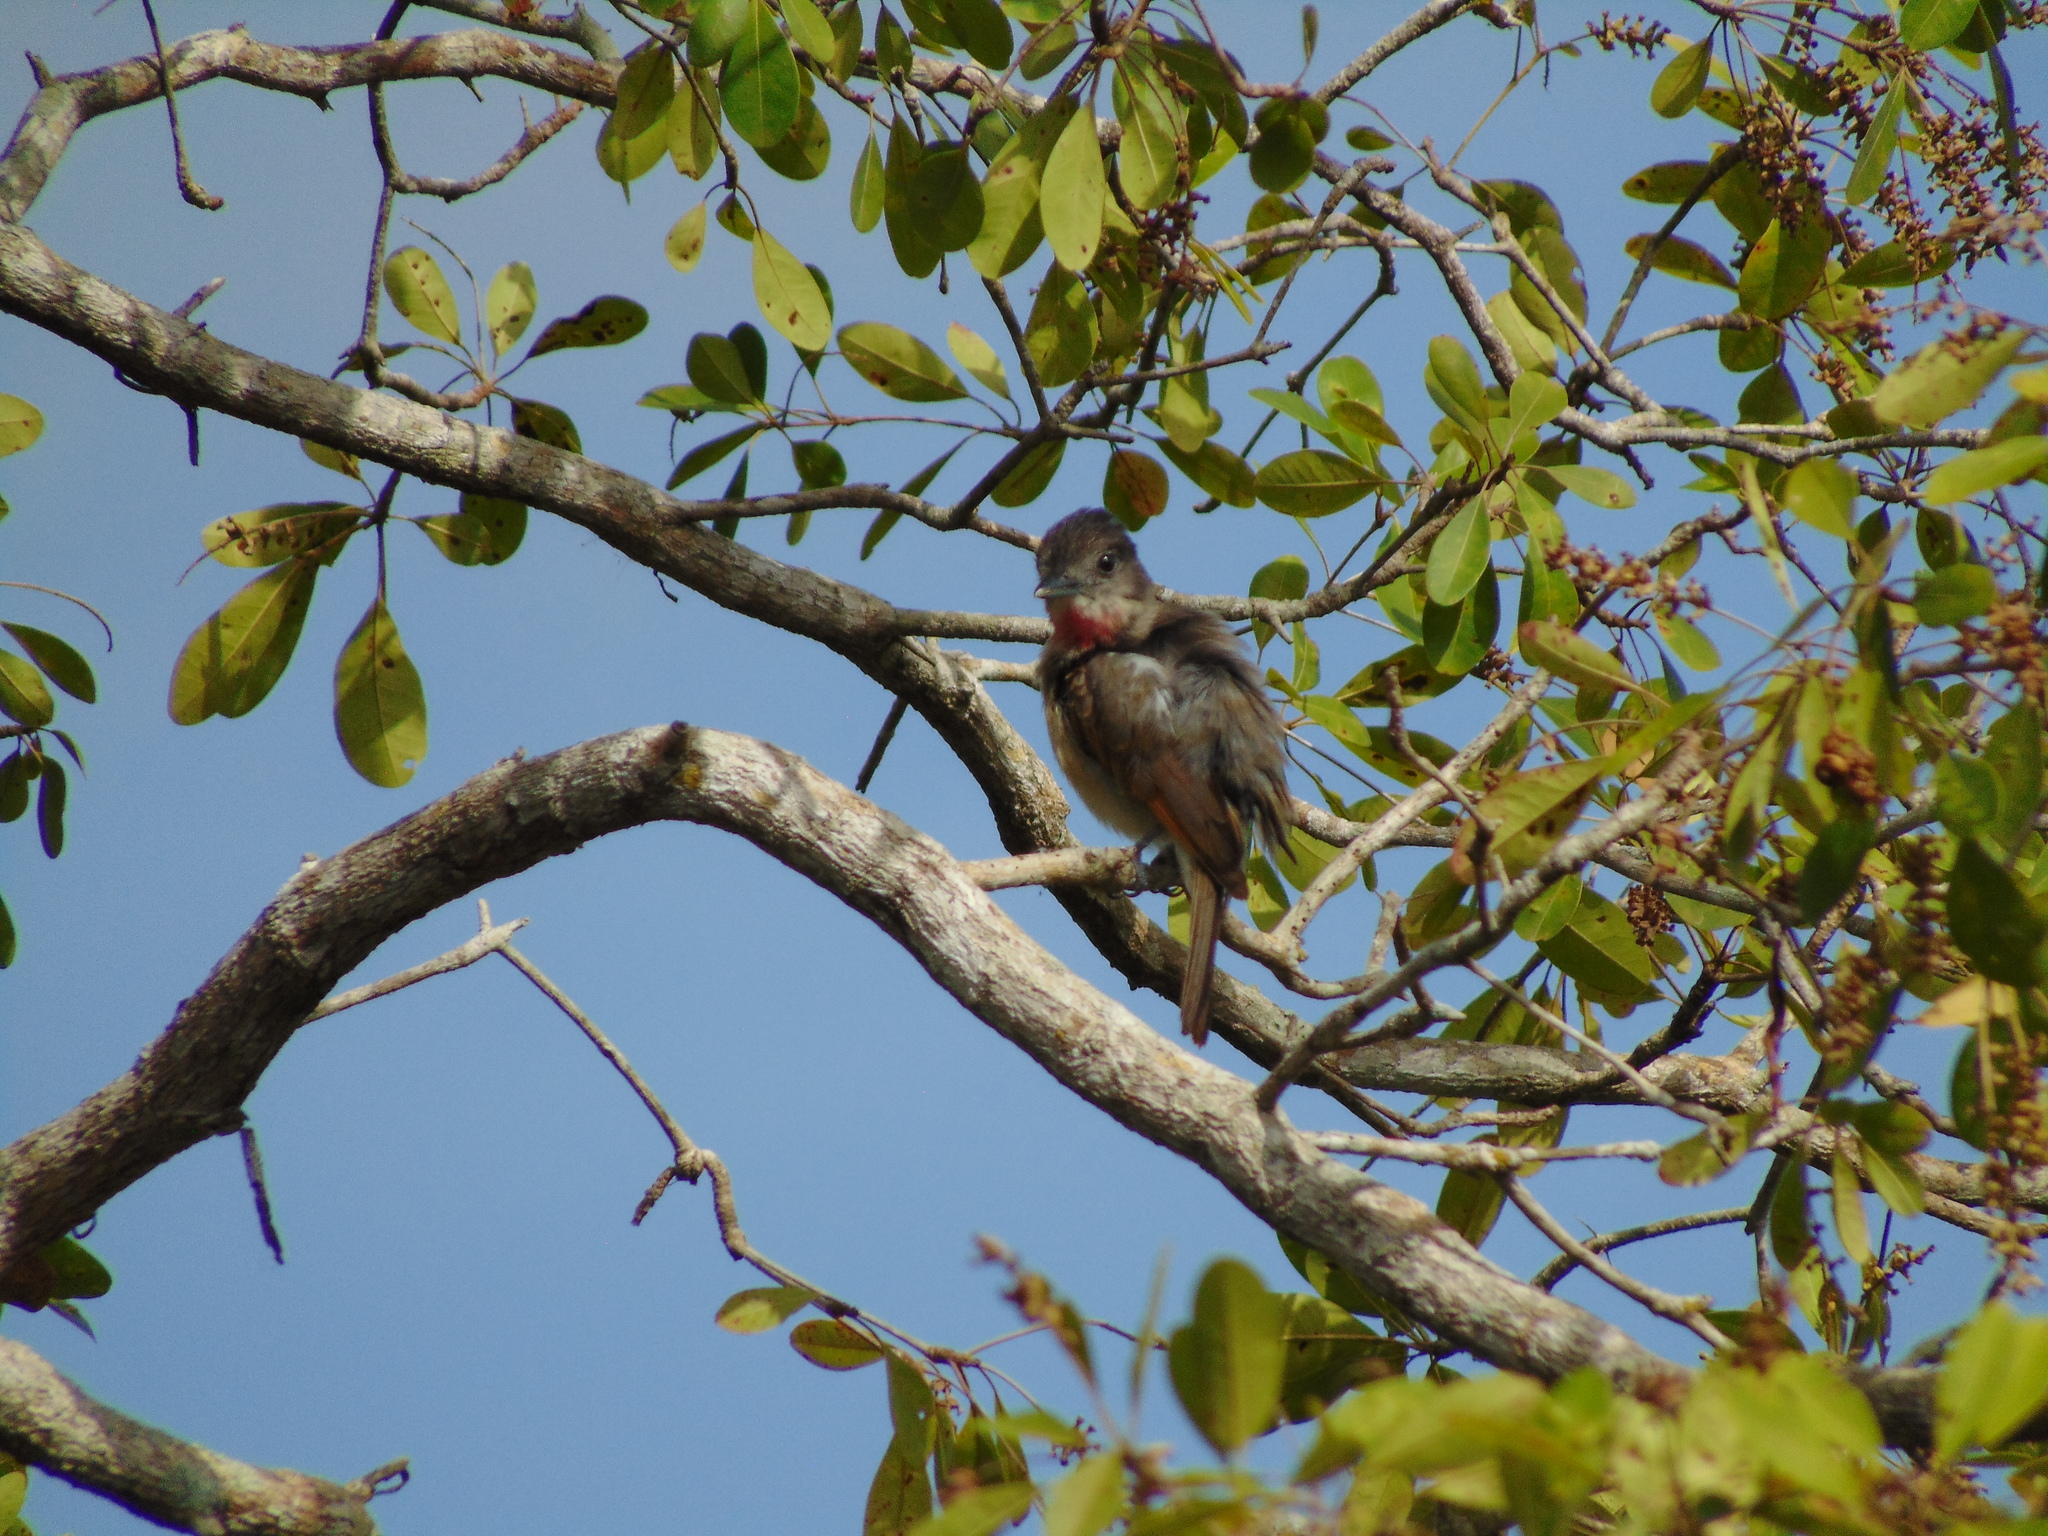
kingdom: Animalia
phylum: Chordata
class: Aves
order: Passeriformes
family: Cotingidae
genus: Pachyramphus
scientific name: Pachyramphus aglaiae
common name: Rose-throated becard
